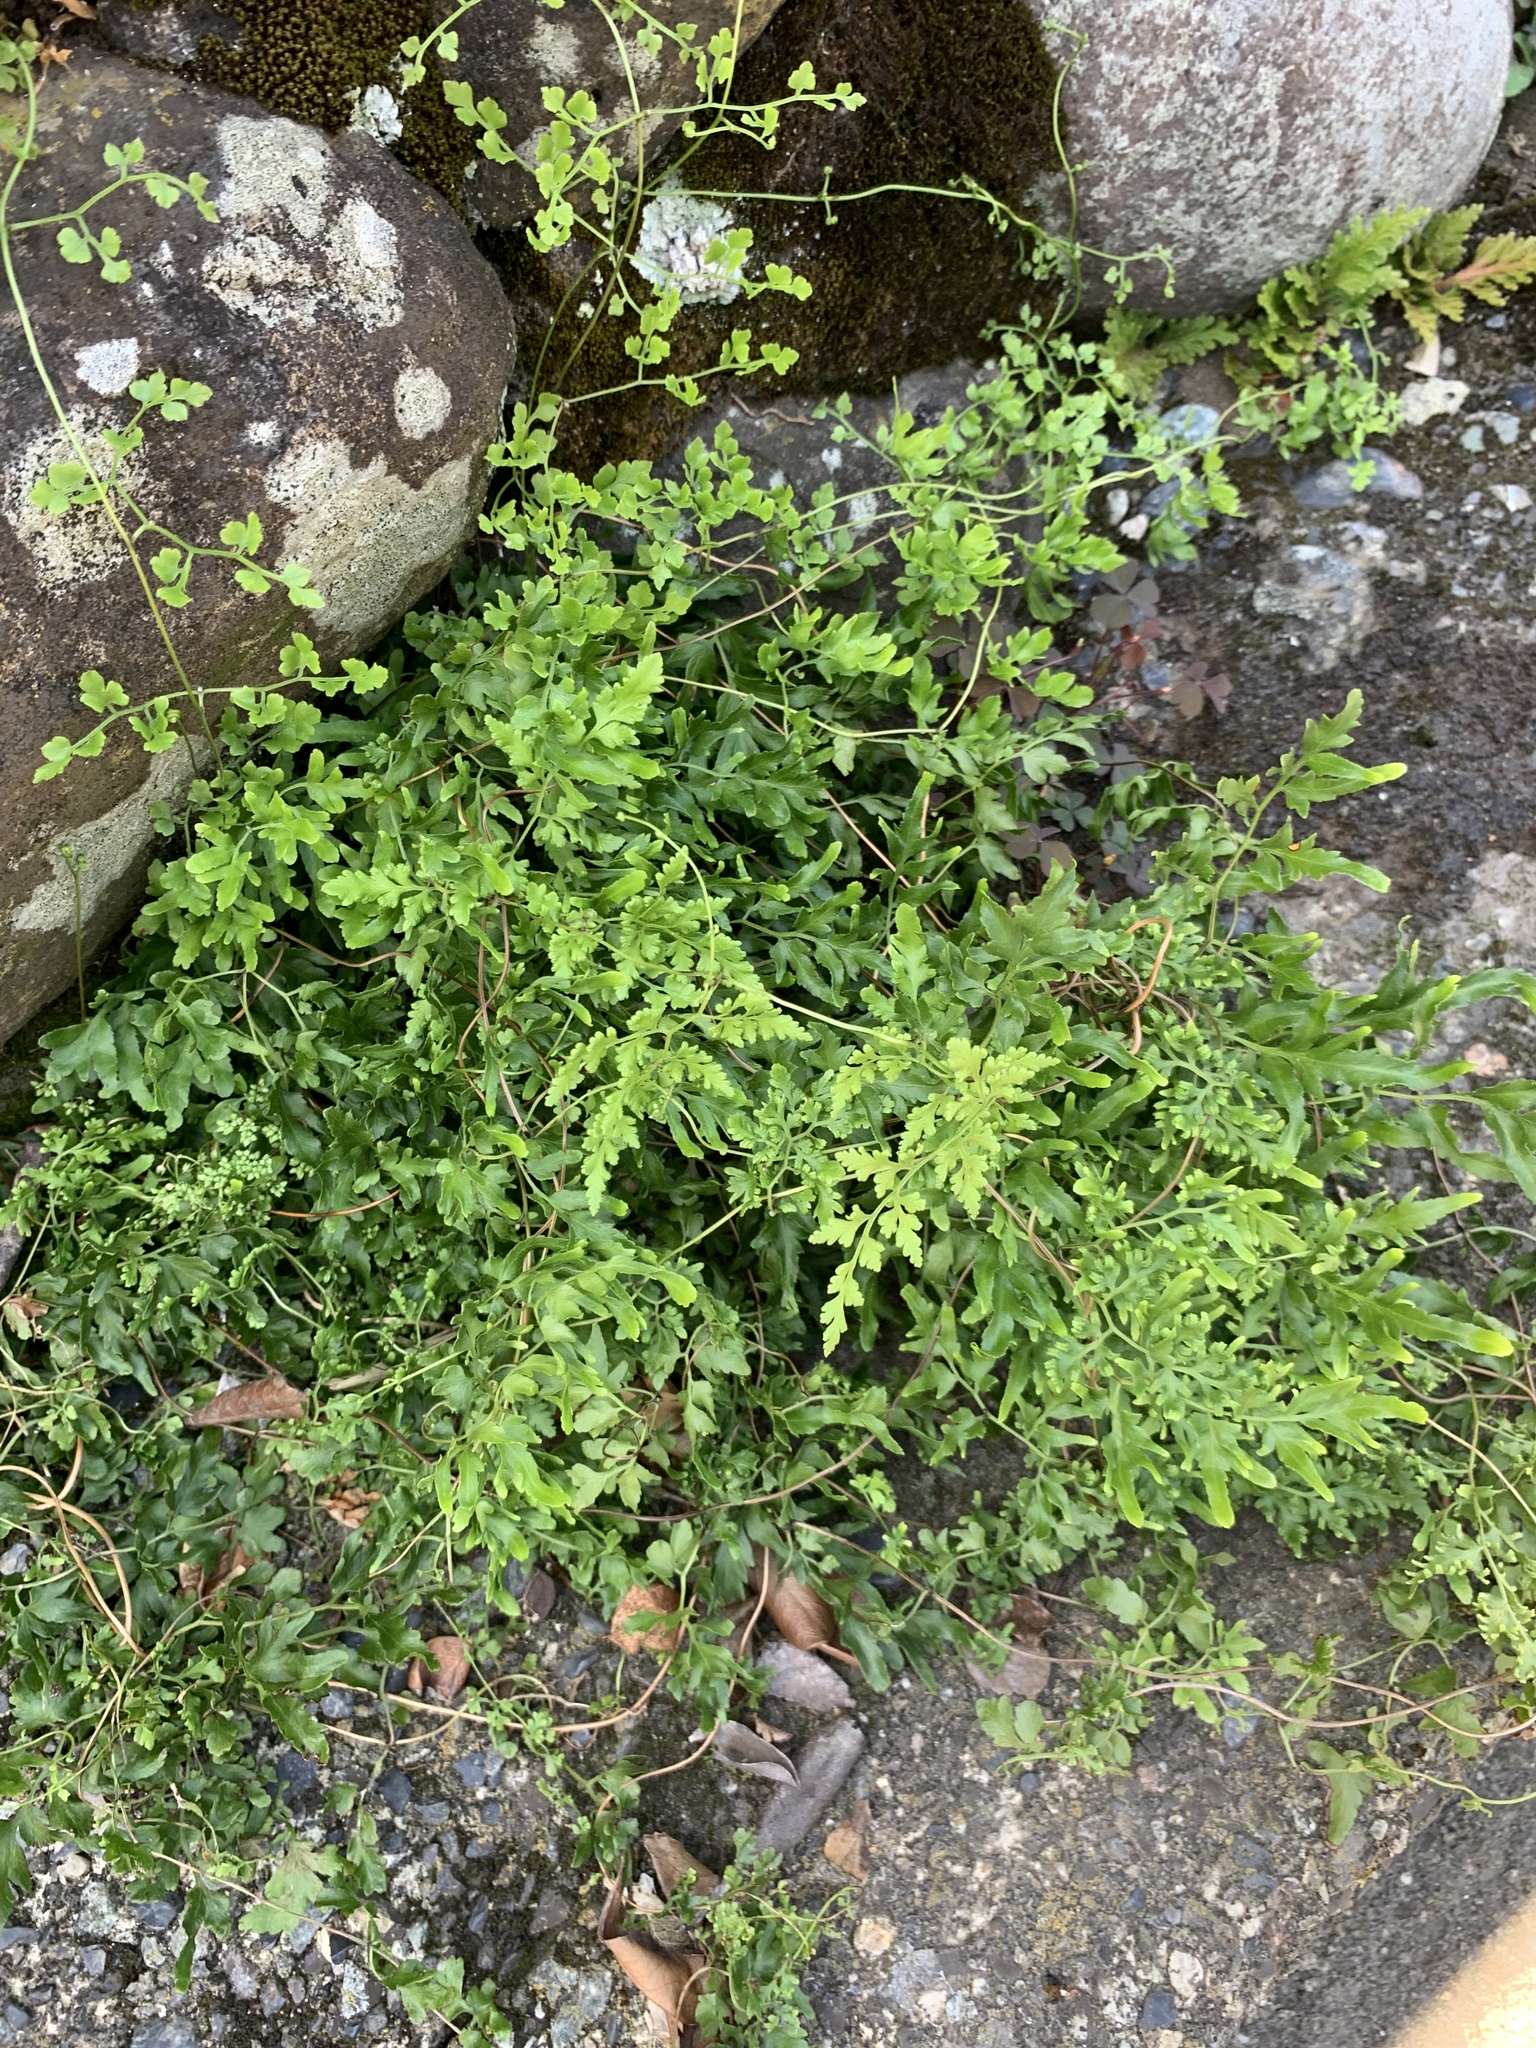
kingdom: Plantae
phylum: Tracheophyta
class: Polypodiopsida
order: Schizaeales
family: Lygodiaceae
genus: Lygodium
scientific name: Lygodium japonicum
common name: Japanese climbing fern
